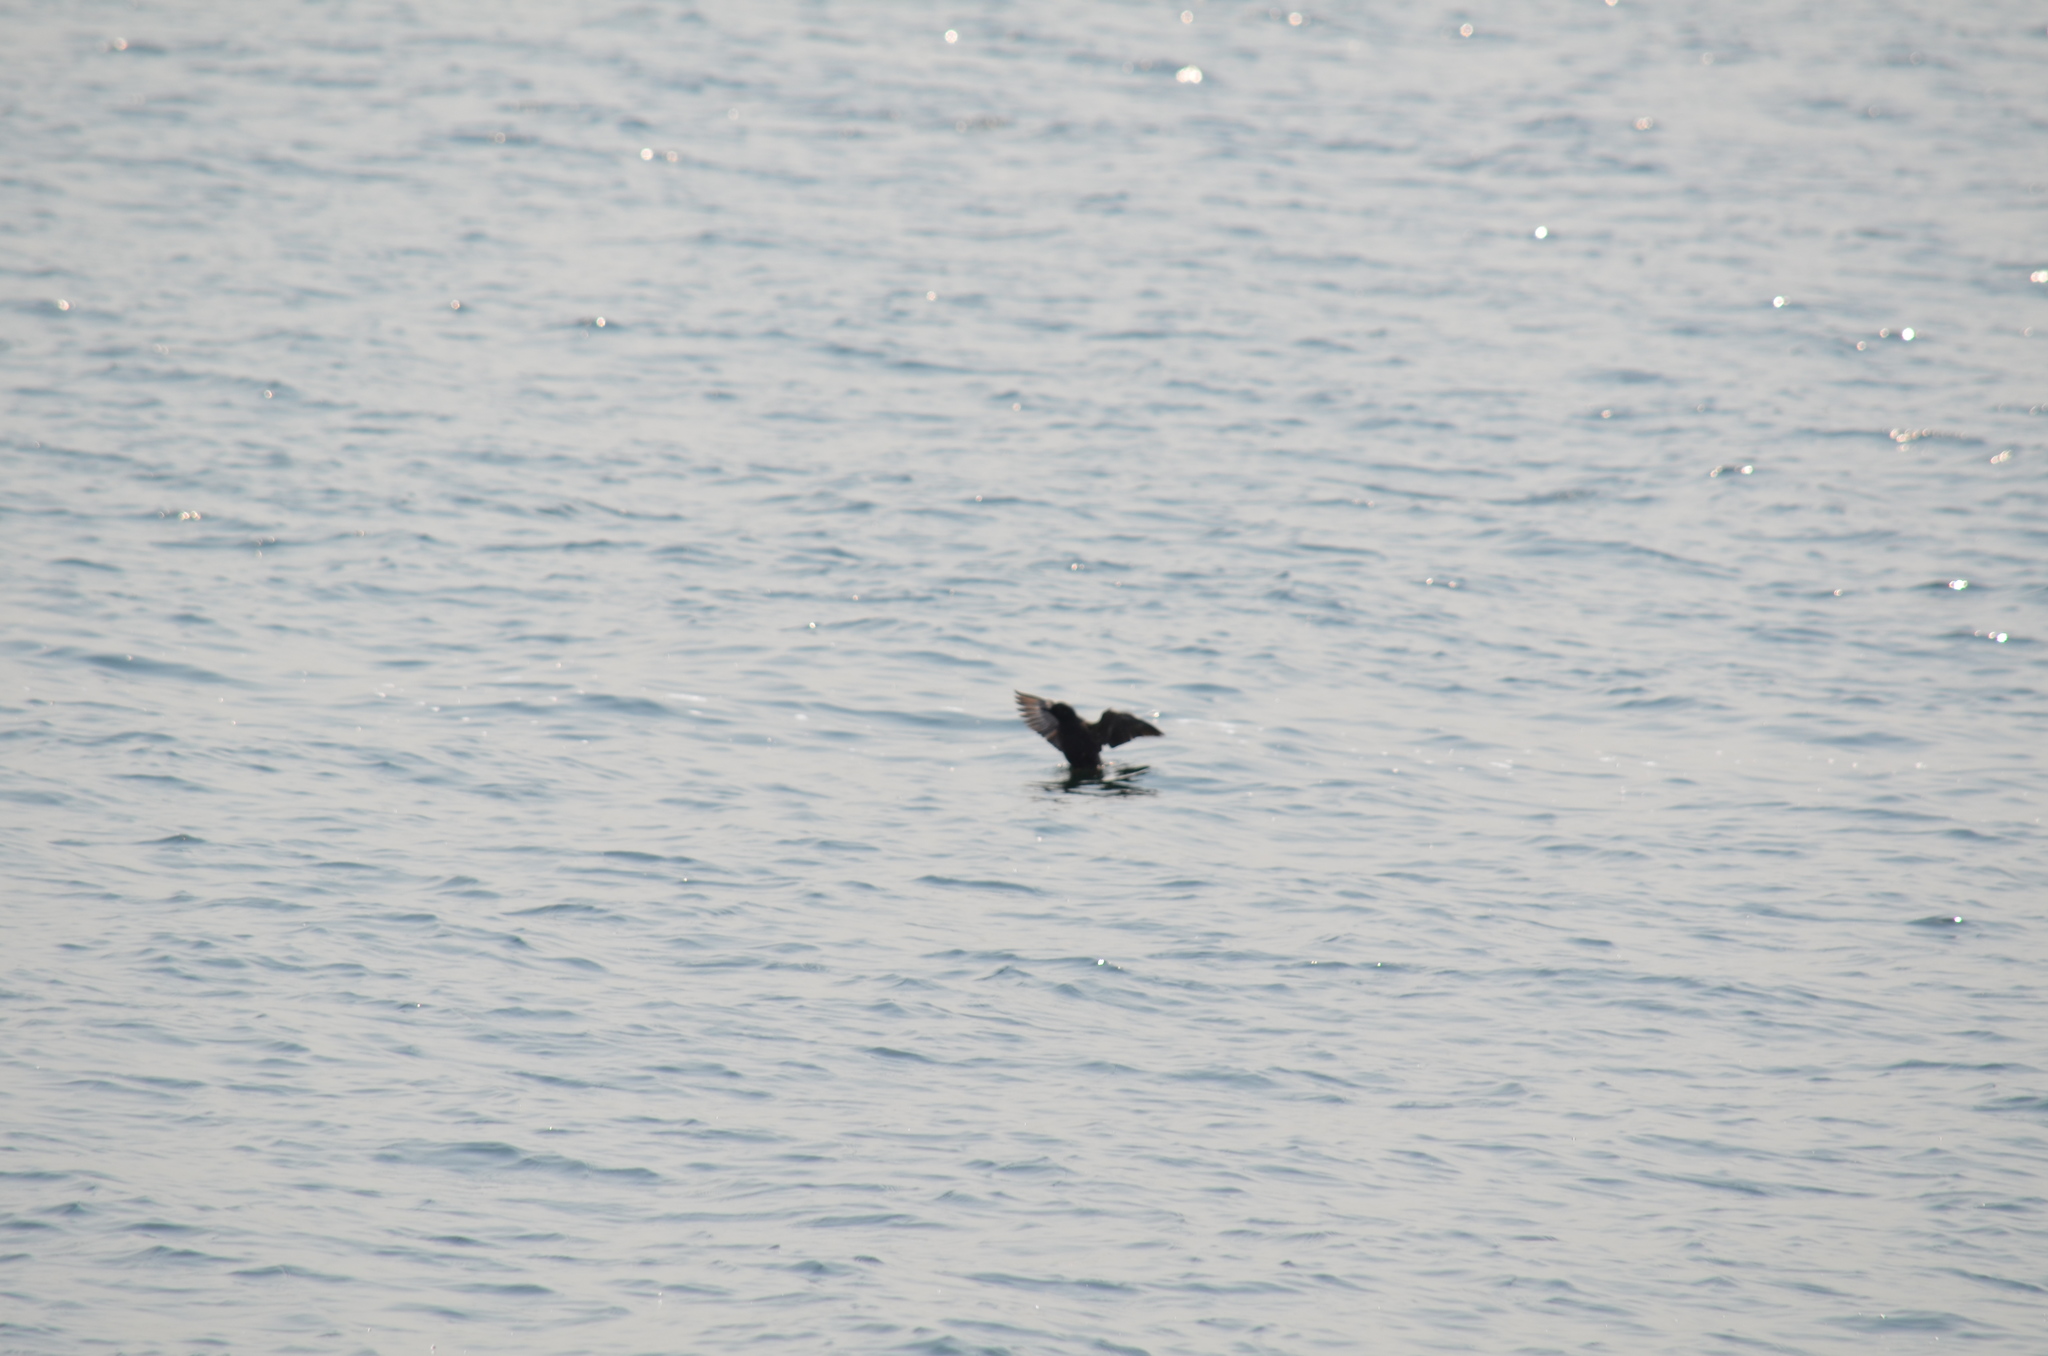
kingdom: Animalia
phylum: Chordata
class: Aves
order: Charadriiformes
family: Alcidae
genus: Cepphus
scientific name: Cepphus columba
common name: Pigeon guillemot
